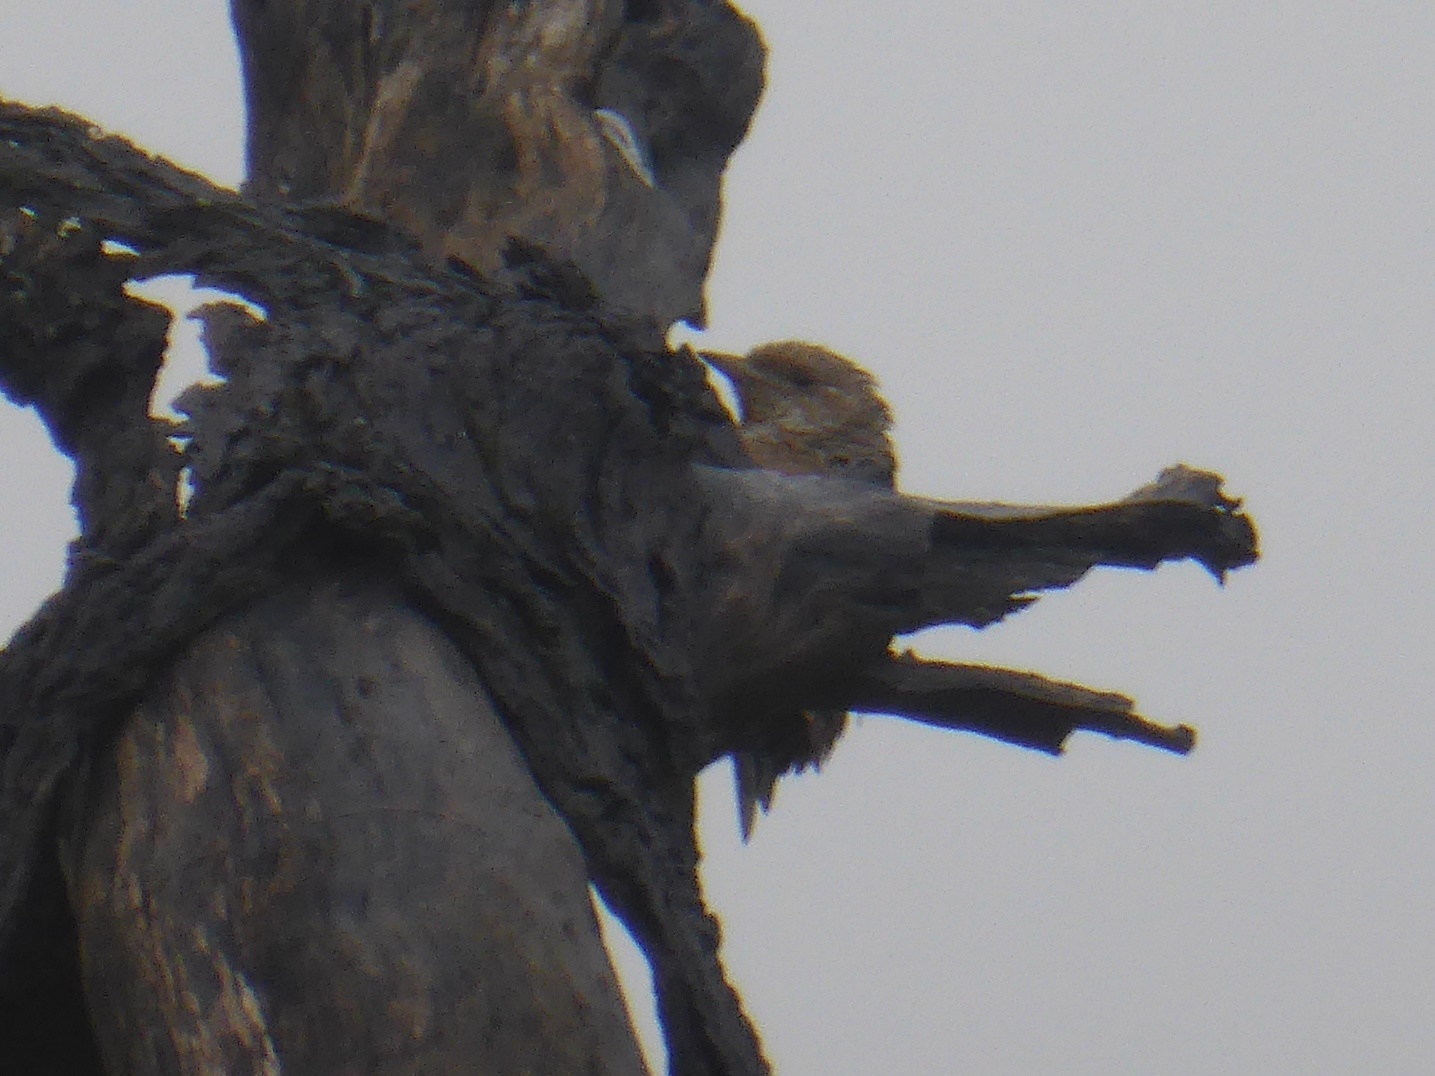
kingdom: Animalia
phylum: Chordata
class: Aves
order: Piciformes
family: Picidae
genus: Jynx
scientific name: Jynx ruficollis
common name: Red-throated wryneck
